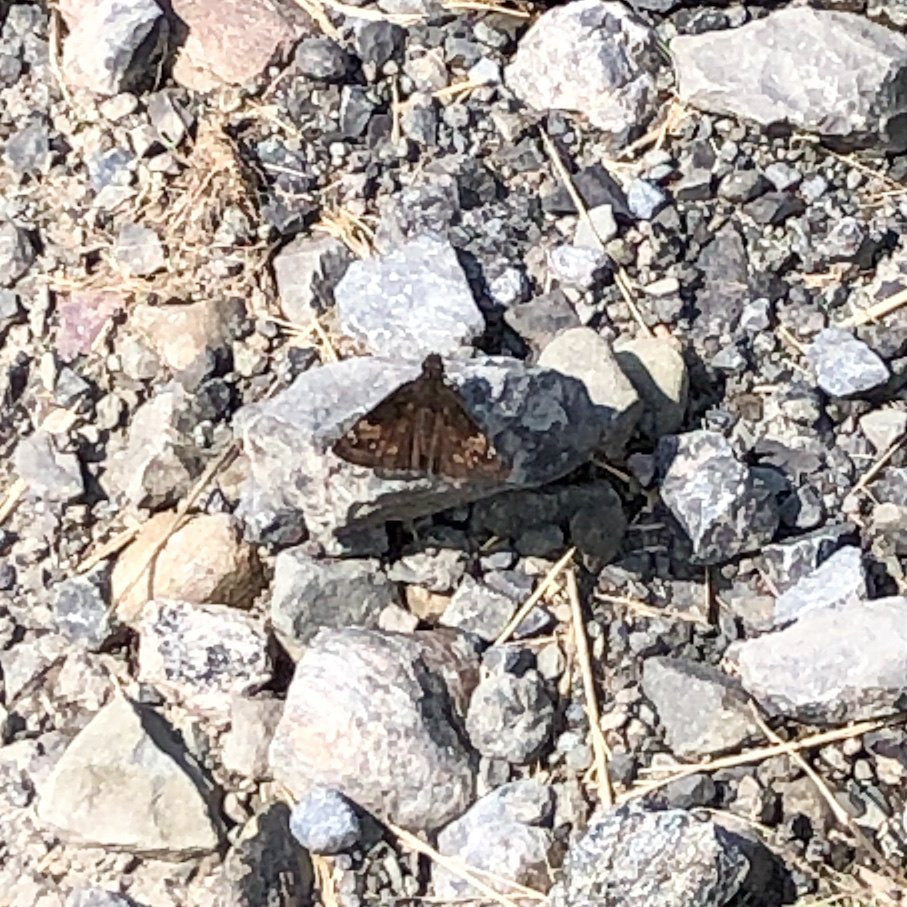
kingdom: Animalia
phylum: Arthropoda
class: Insecta
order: Lepidoptera
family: Hesperiidae
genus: Erynnis
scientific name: Erynnis baptisiae
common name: Wild indigo duskywing
